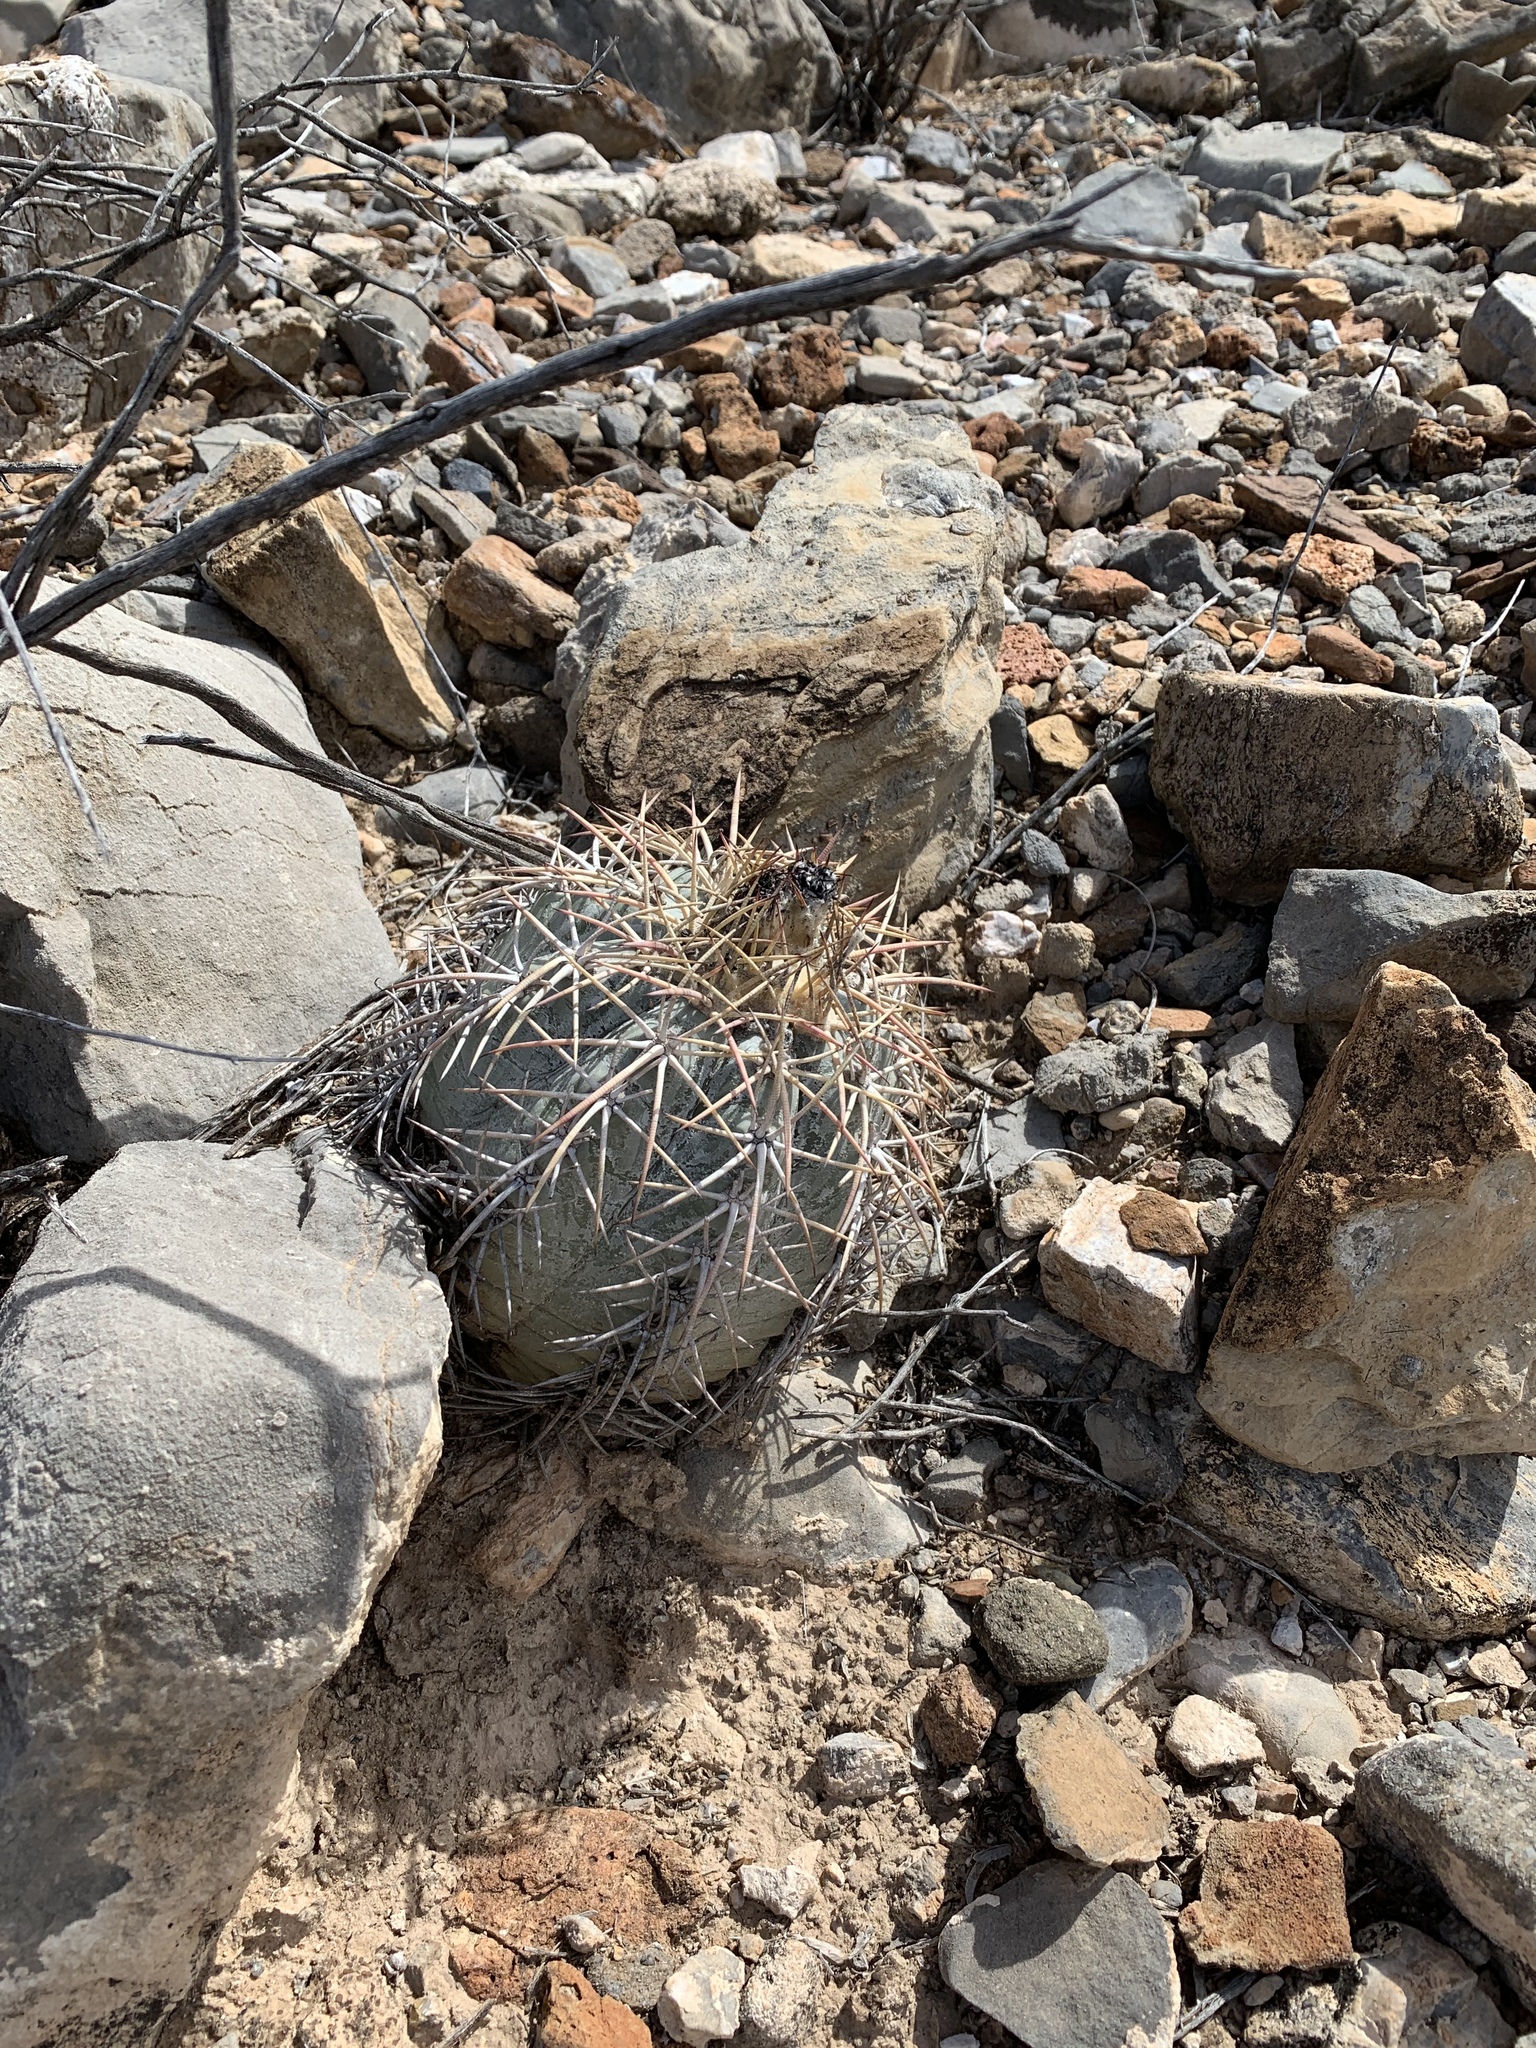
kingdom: Plantae
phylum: Tracheophyta
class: Magnoliopsida
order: Caryophyllales
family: Cactaceae
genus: Echinocactus
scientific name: Echinocactus horizonthalonius
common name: Devilshead
